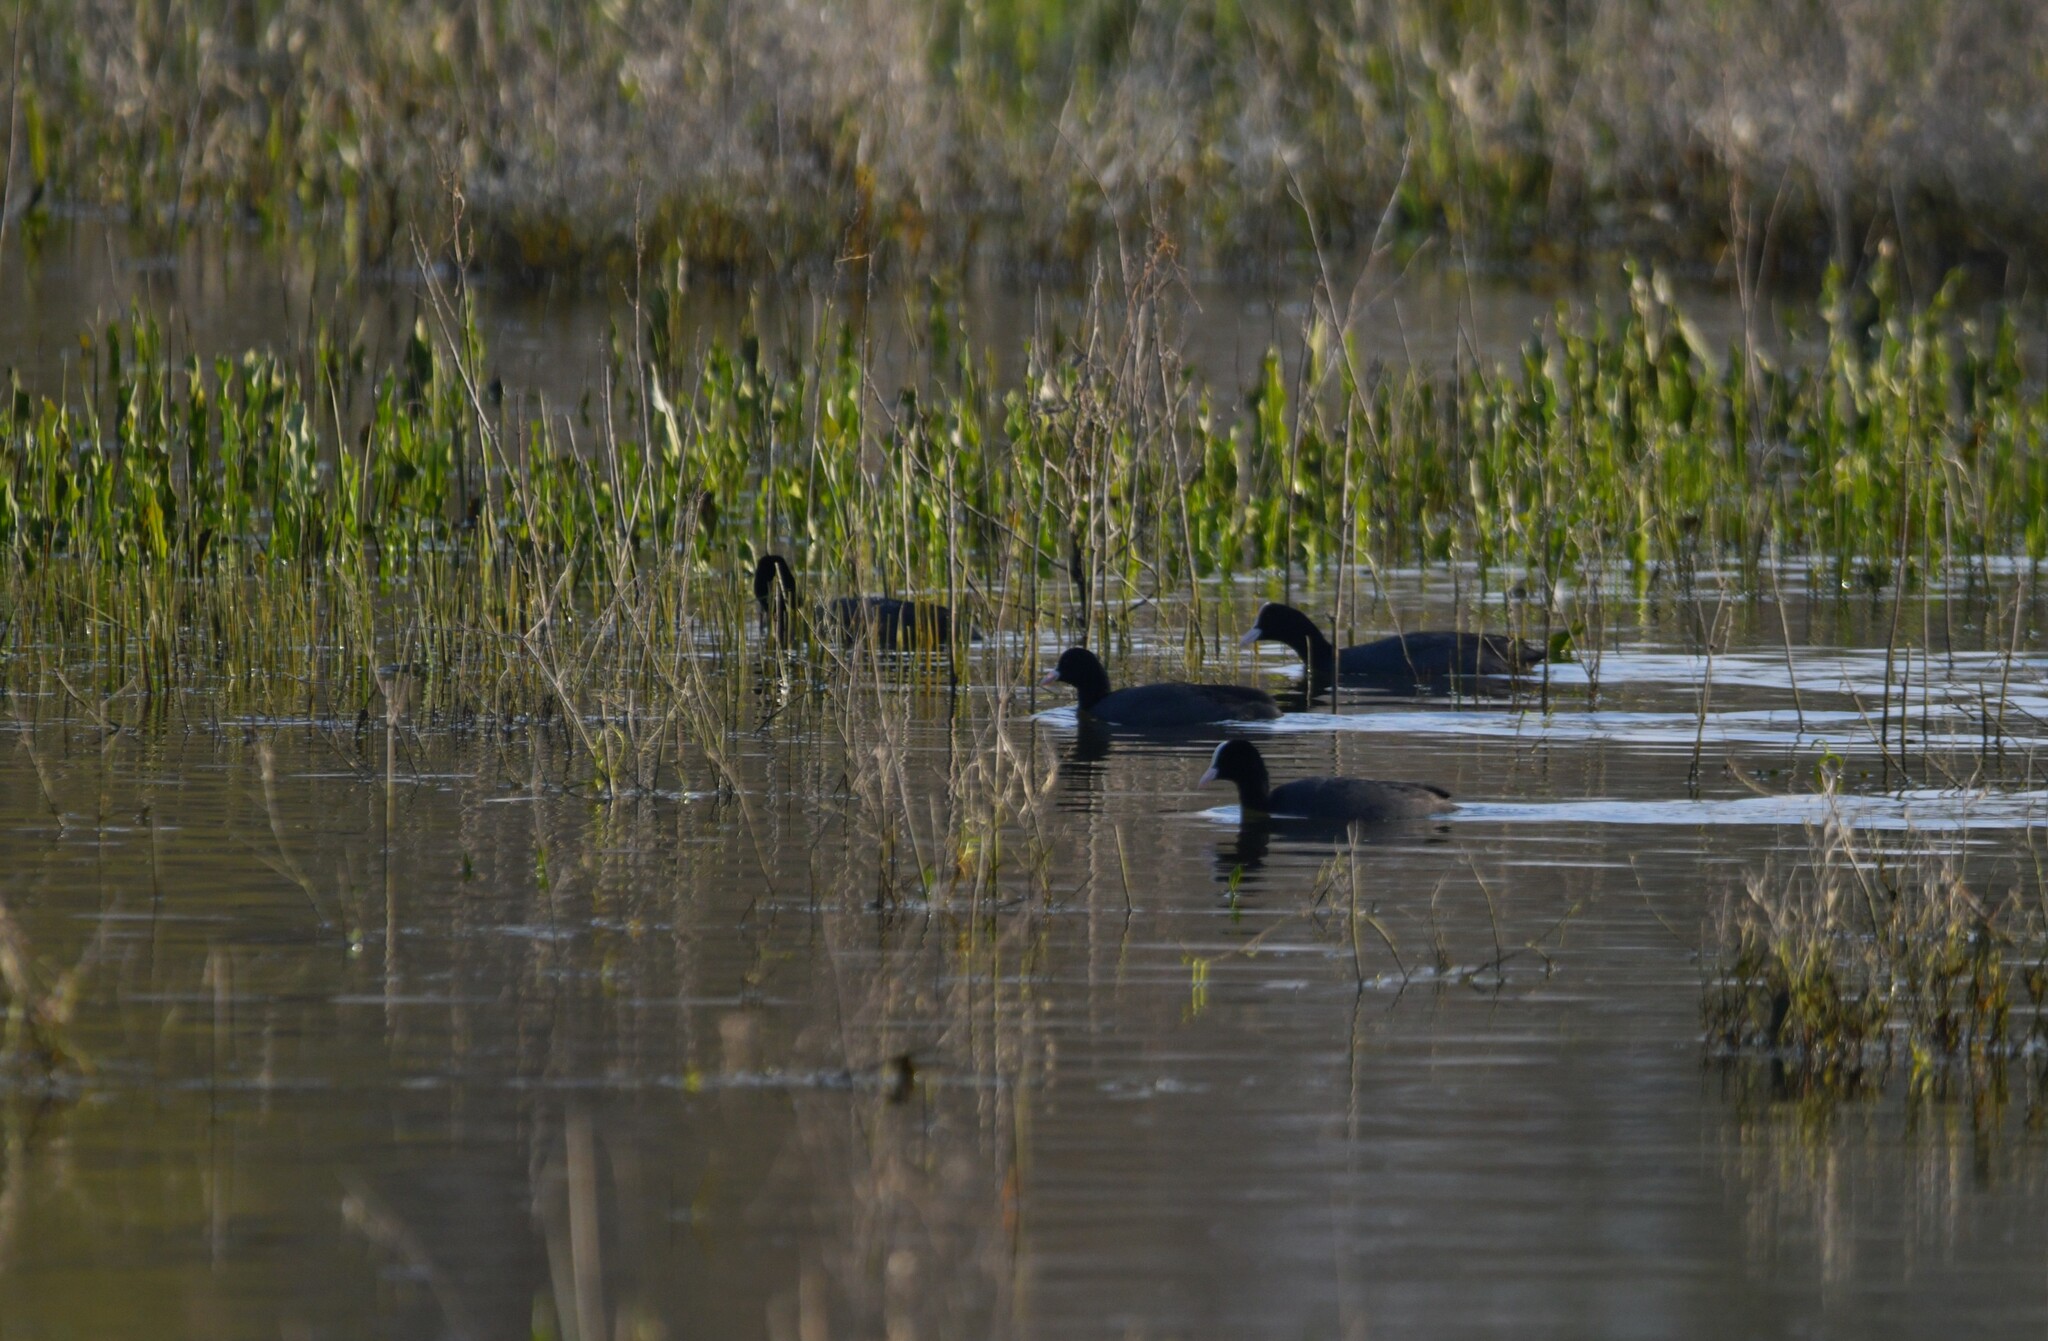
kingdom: Animalia
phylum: Chordata
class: Aves
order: Gruiformes
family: Rallidae
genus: Fulica
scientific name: Fulica atra
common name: Eurasian coot
